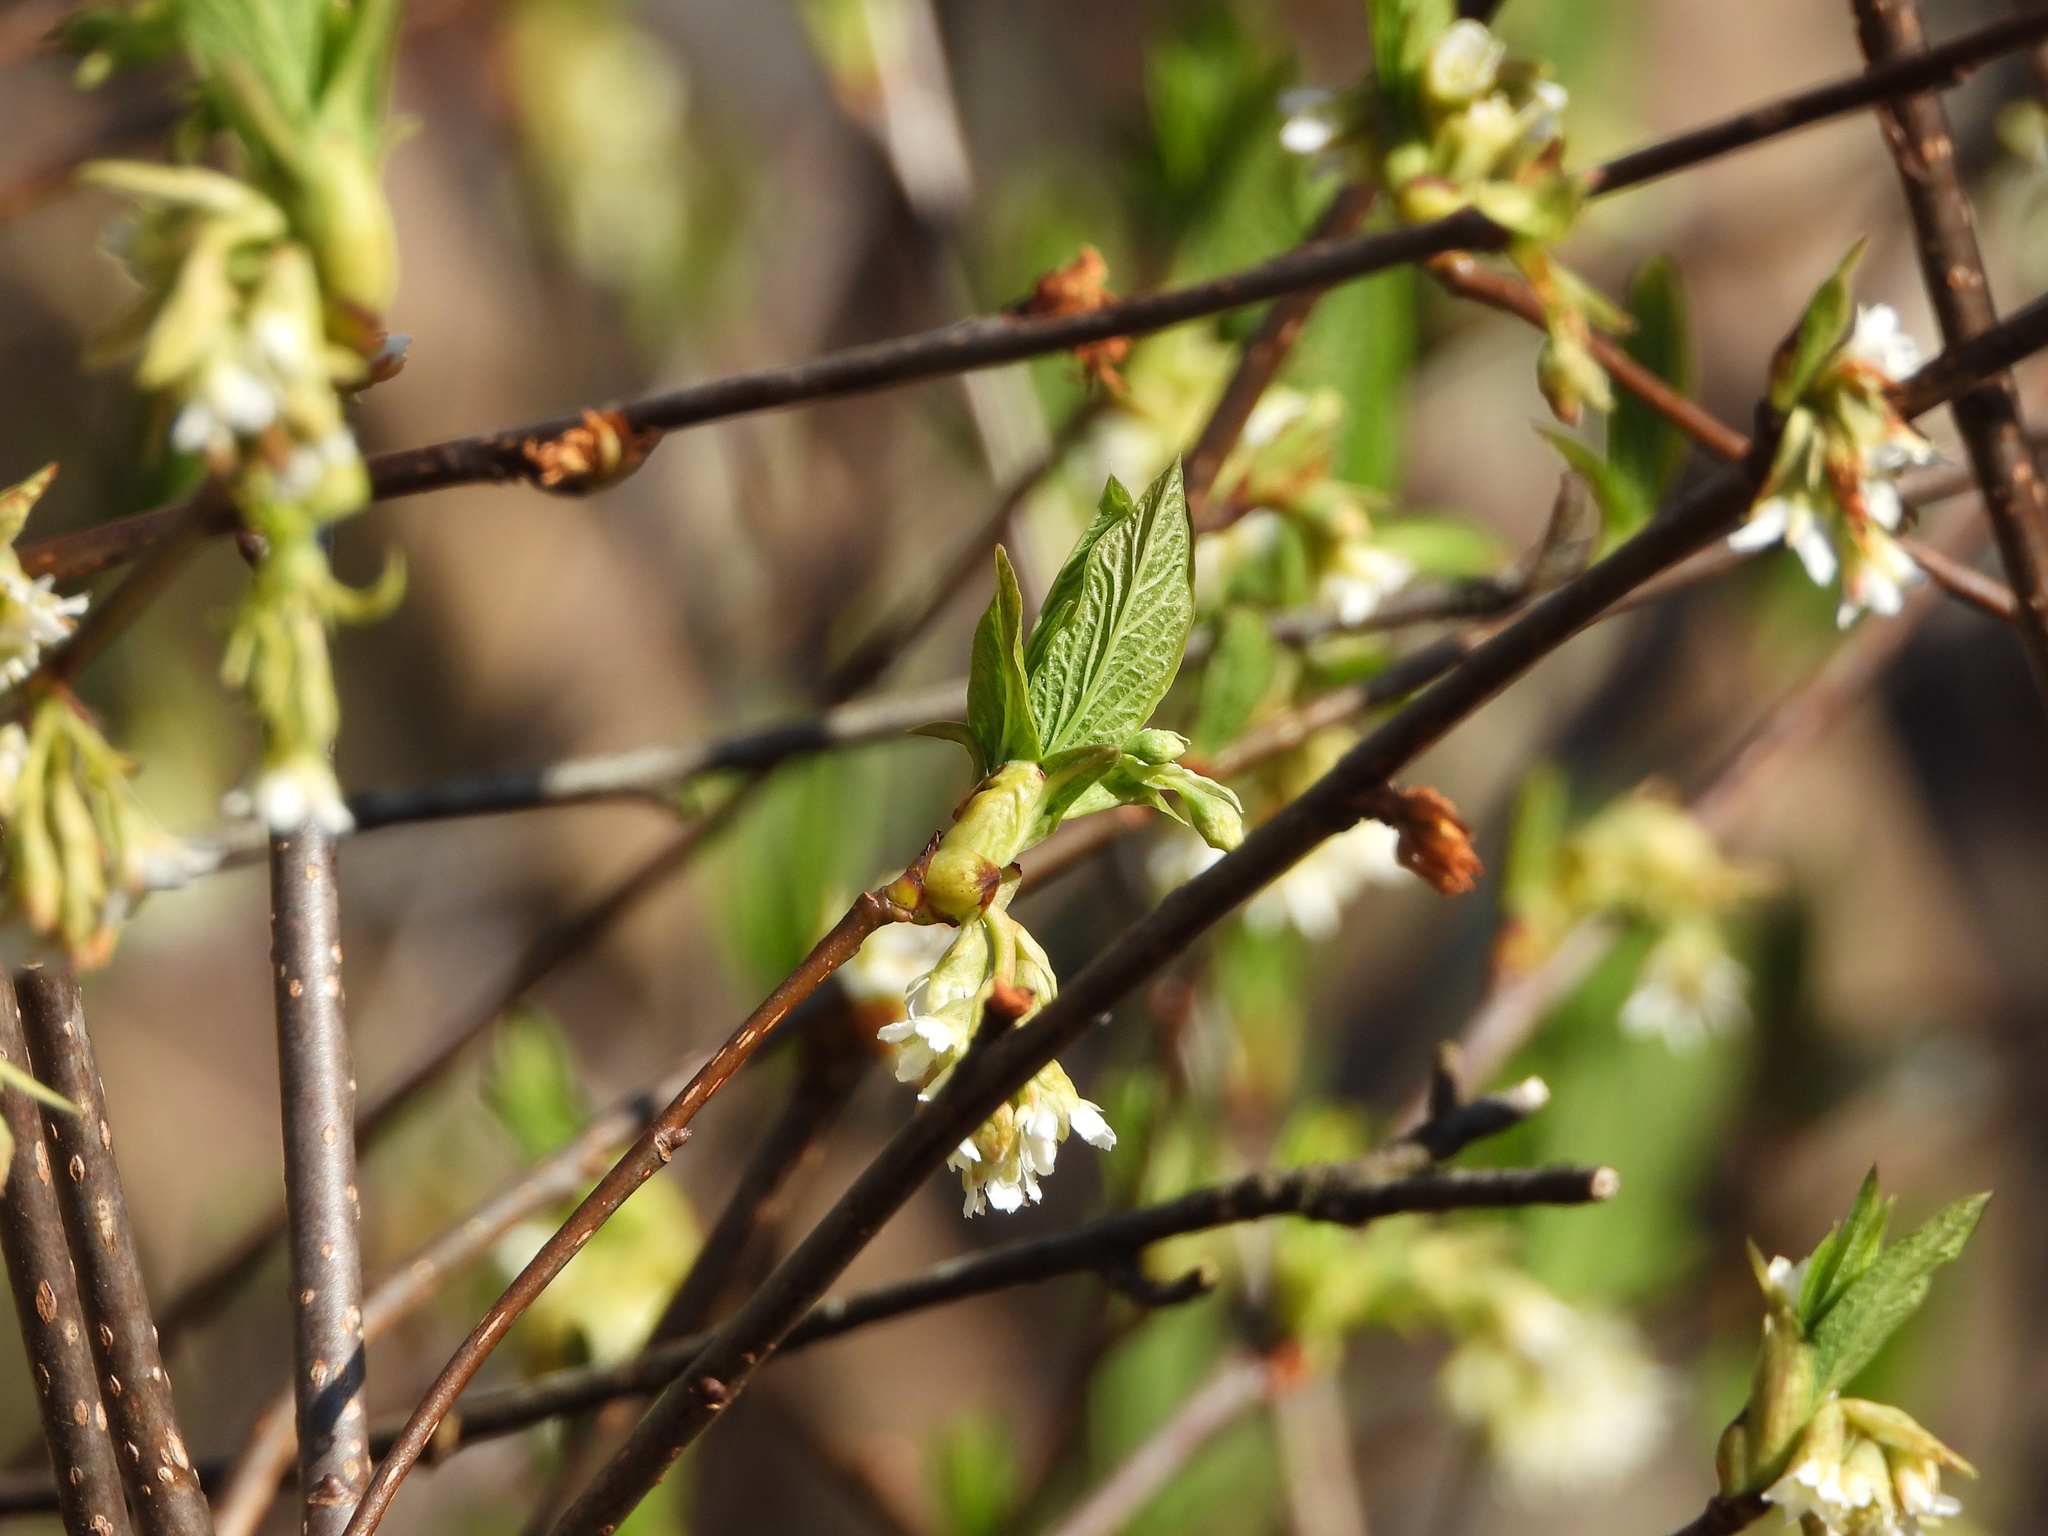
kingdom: Plantae
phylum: Tracheophyta
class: Magnoliopsida
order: Rosales
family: Rosaceae
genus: Oemleria
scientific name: Oemleria cerasiformis
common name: Osoberry
